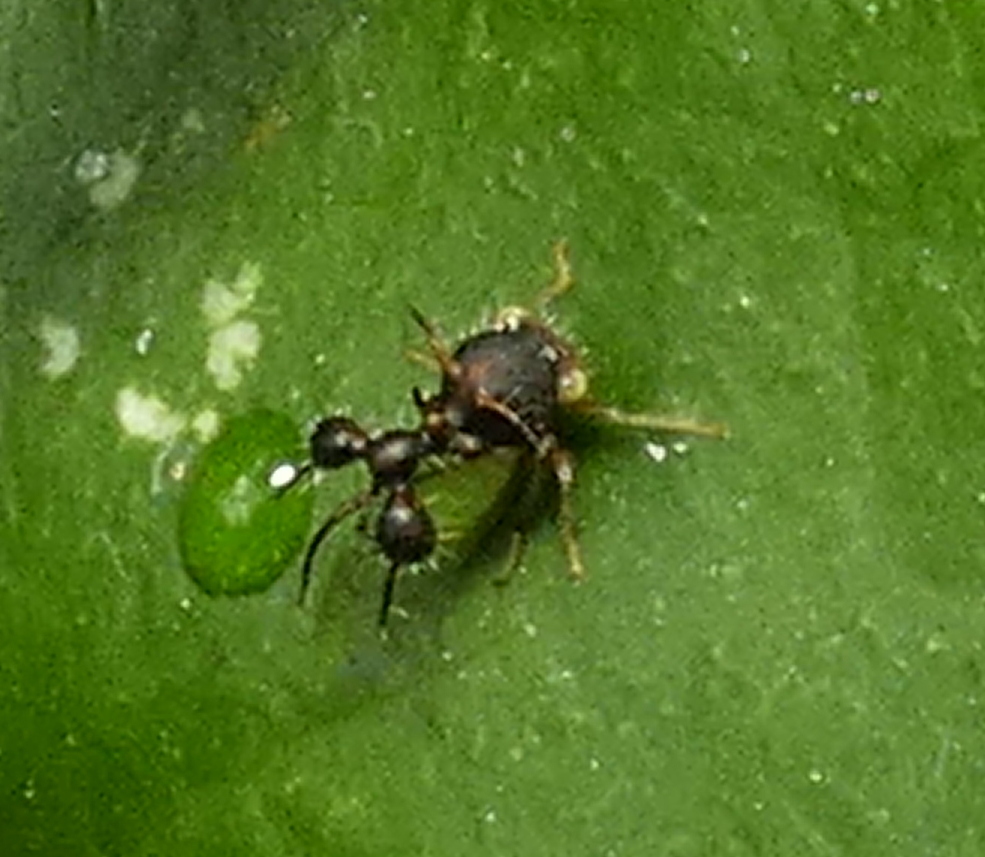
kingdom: Animalia
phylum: Arthropoda
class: Insecta
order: Hemiptera
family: Membracidae
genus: Cyphonia
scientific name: Cyphonia clavata
